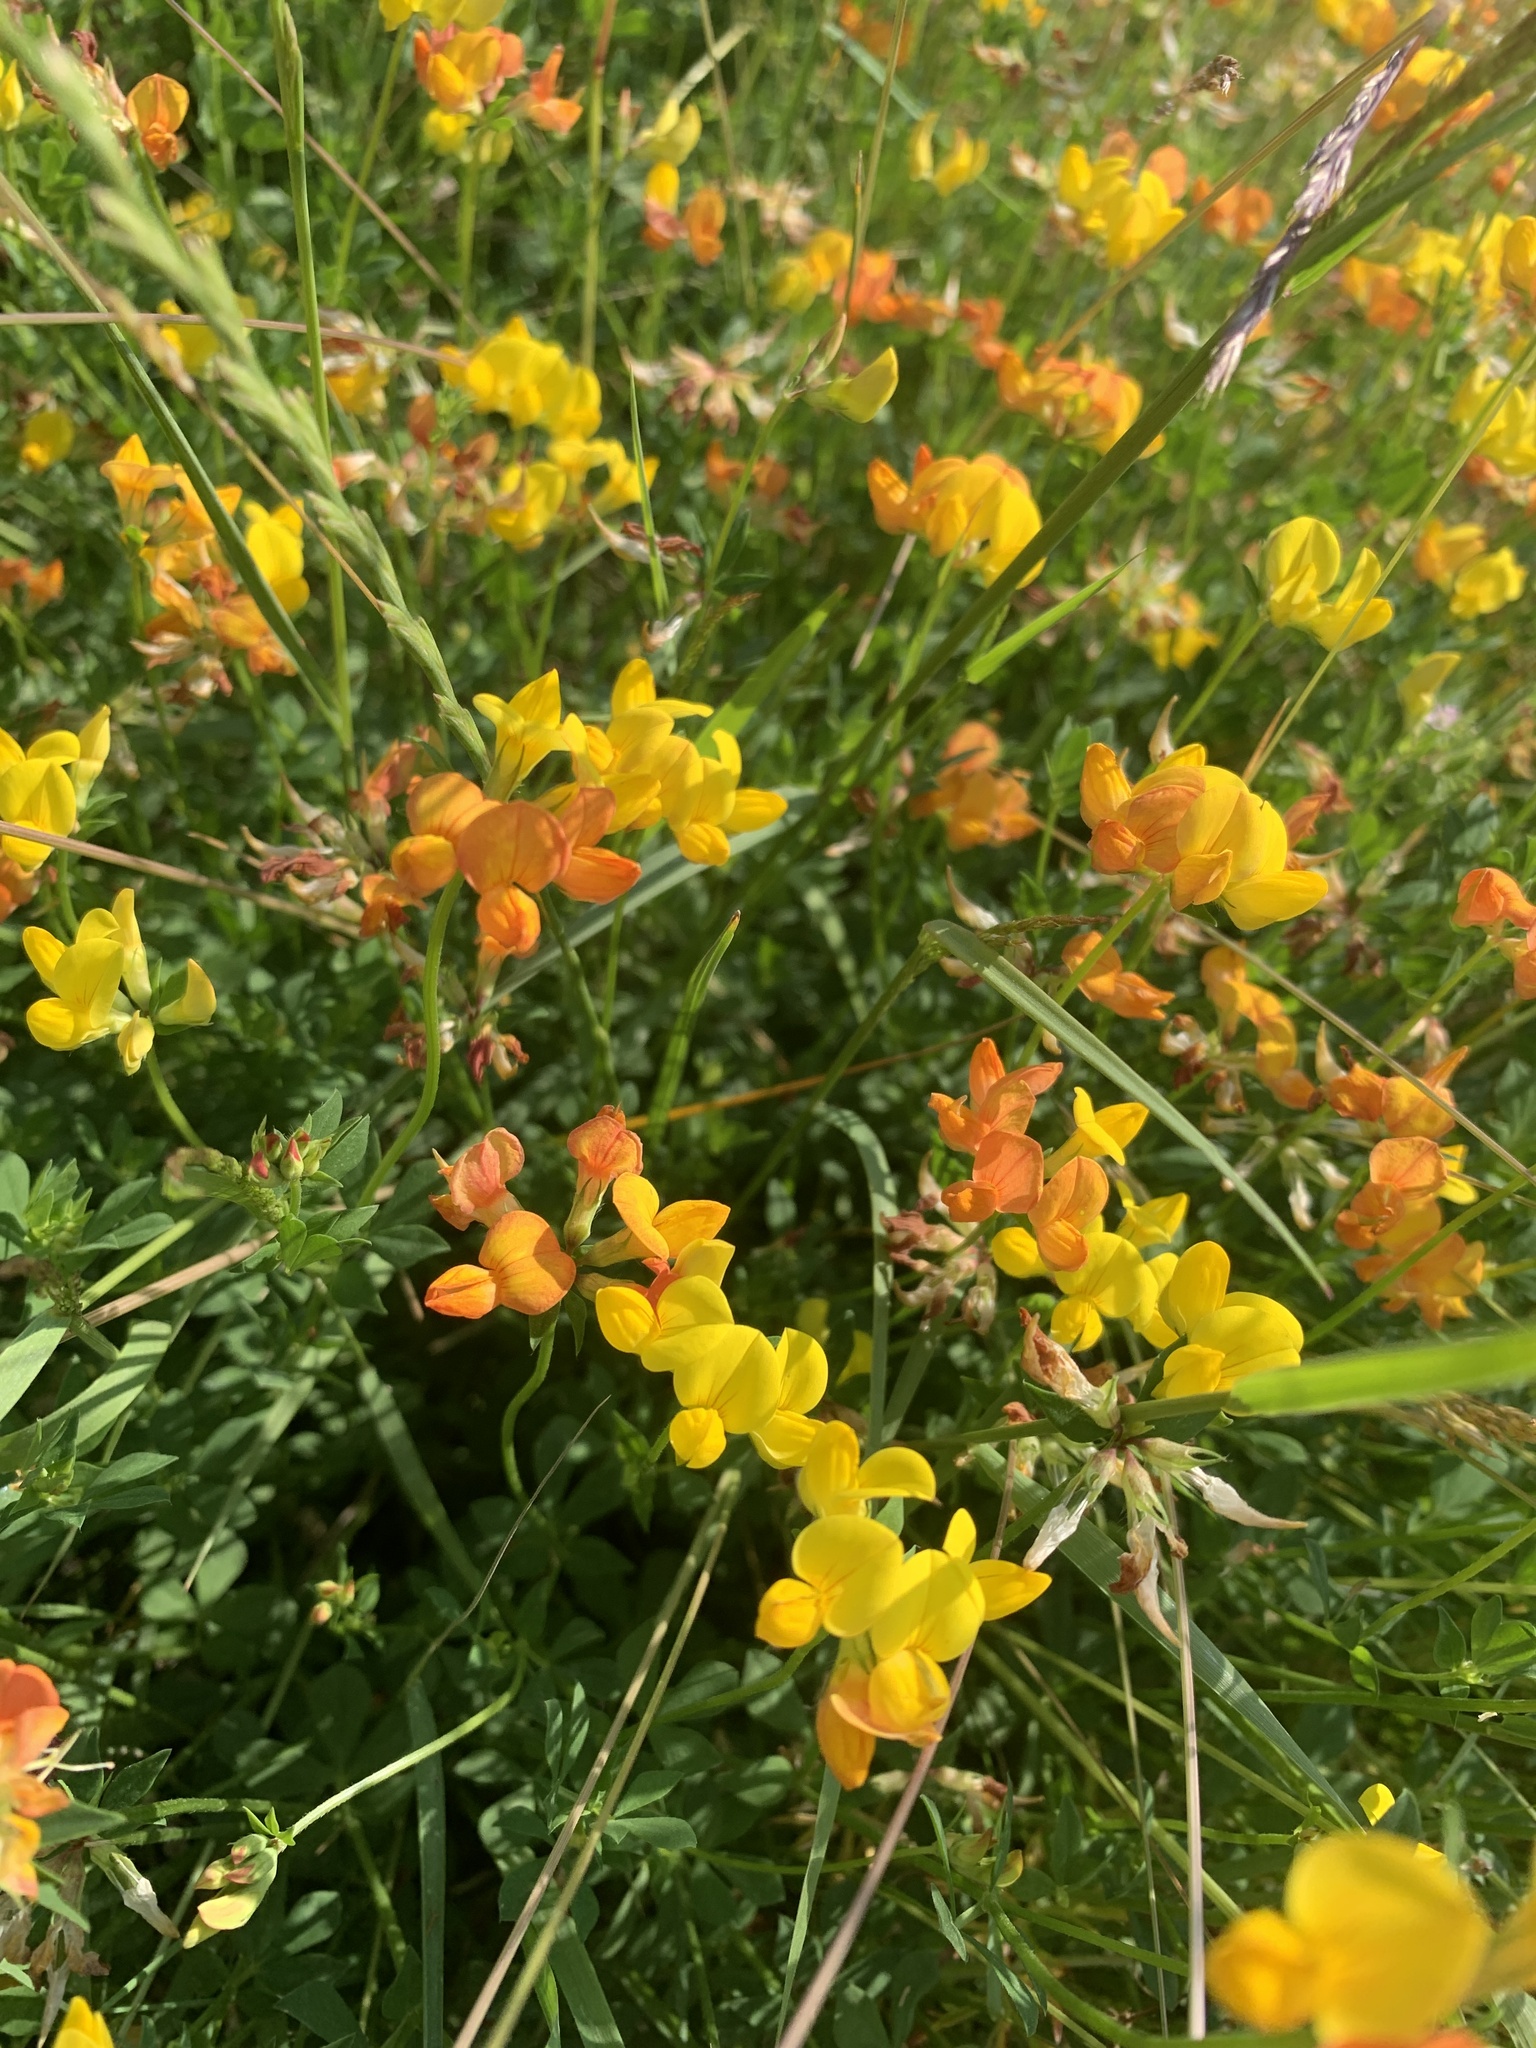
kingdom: Plantae
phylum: Tracheophyta
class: Magnoliopsida
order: Fabales
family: Fabaceae
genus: Lotus
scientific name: Lotus corniculatus
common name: Common bird's-foot-trefoil
